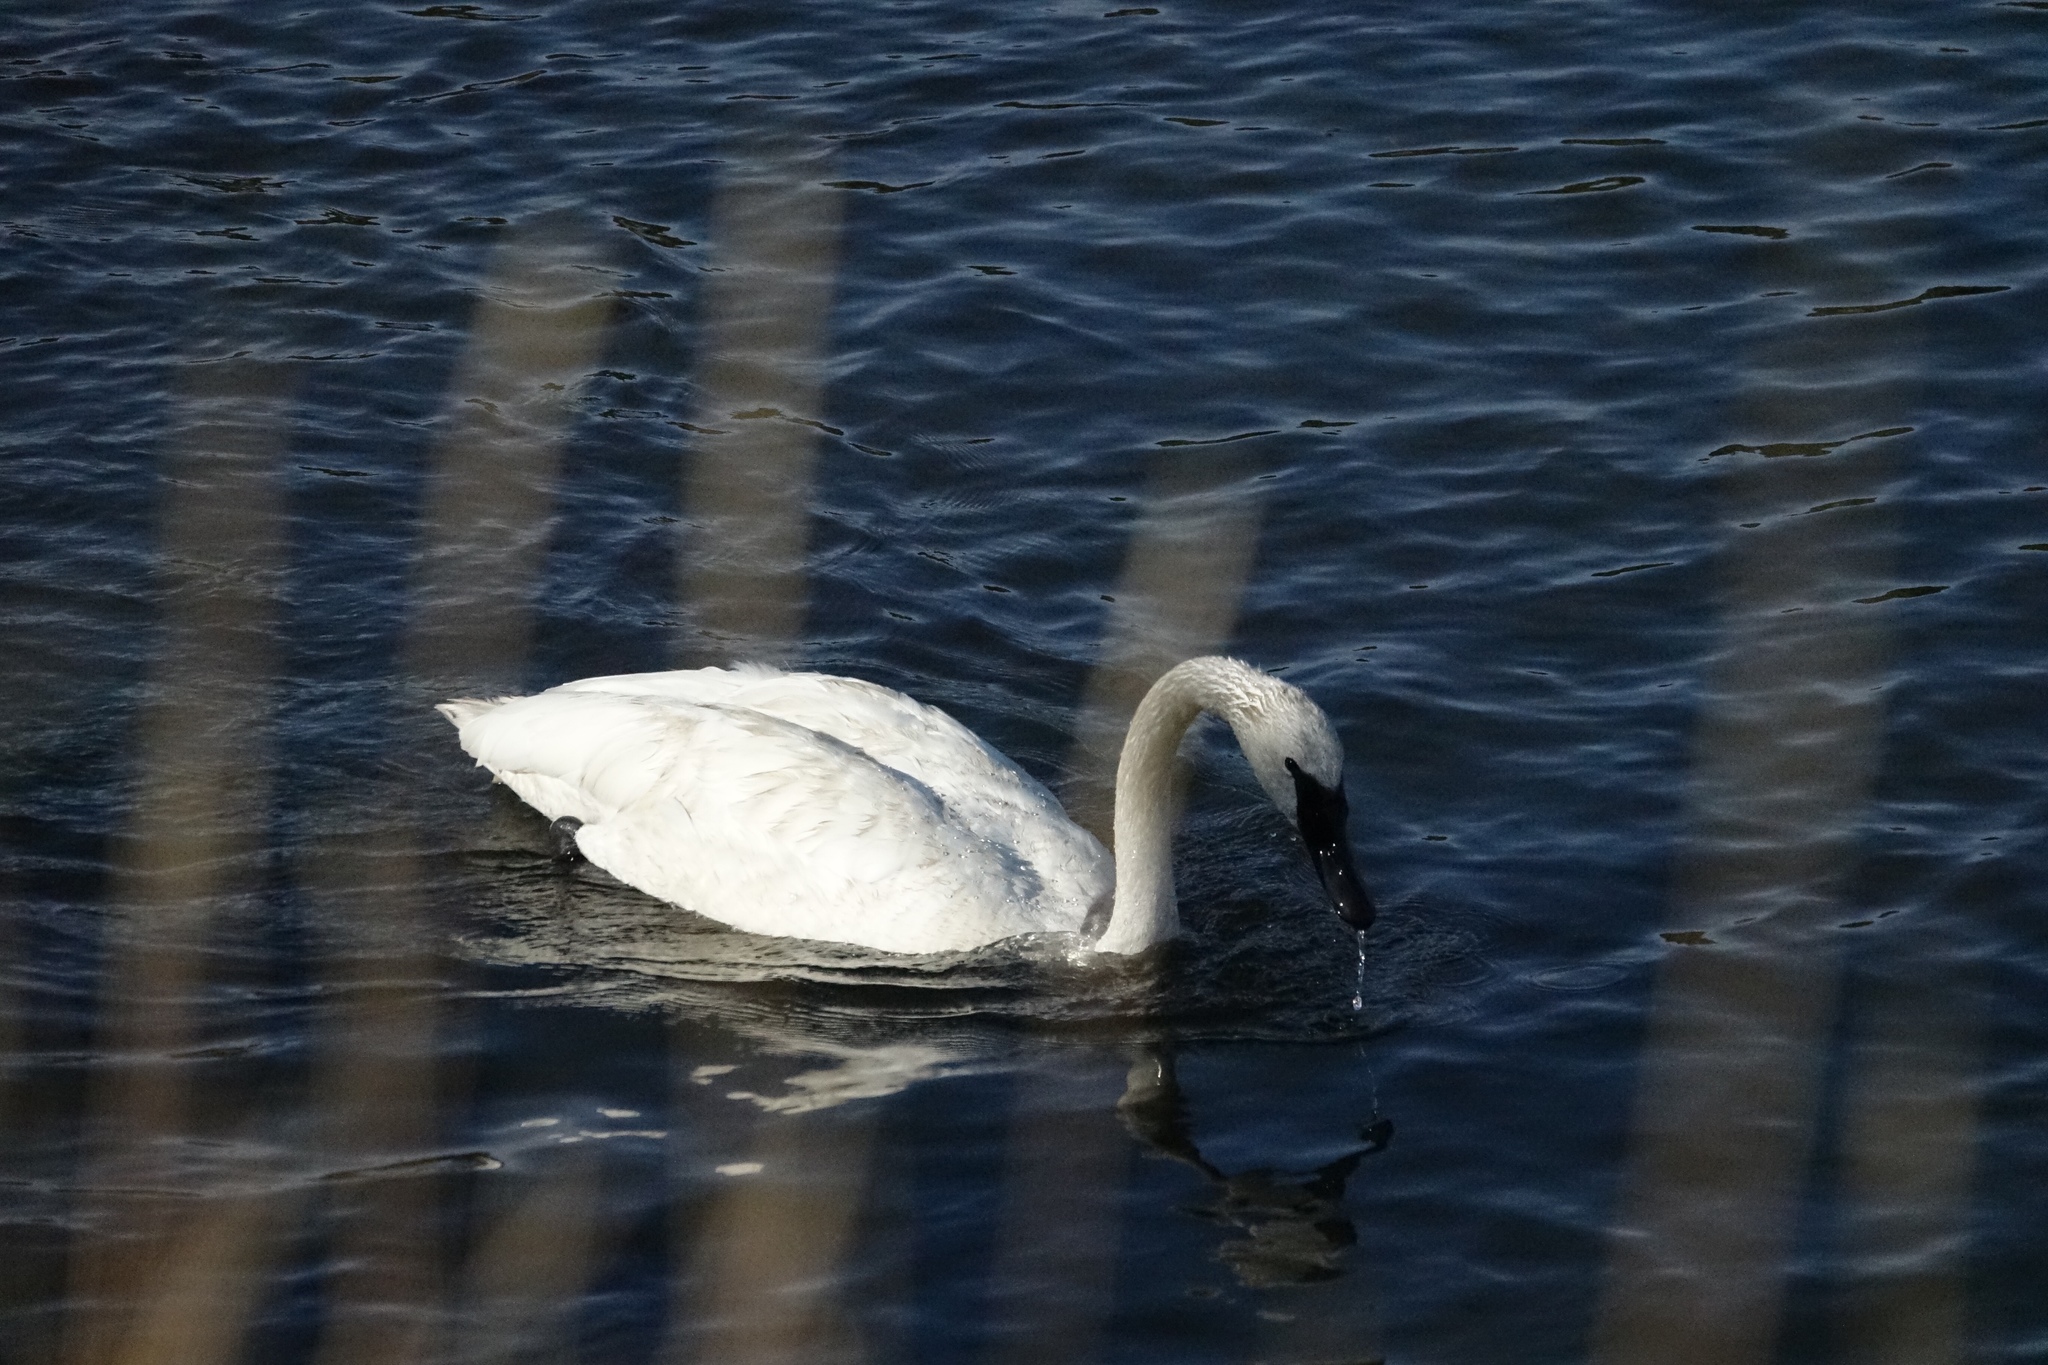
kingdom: Animalia
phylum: Chordata
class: Aves
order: Anseriformes
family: Anatidae
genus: Cygnus
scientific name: Cygnus buccinator
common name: Trumpeter swan
